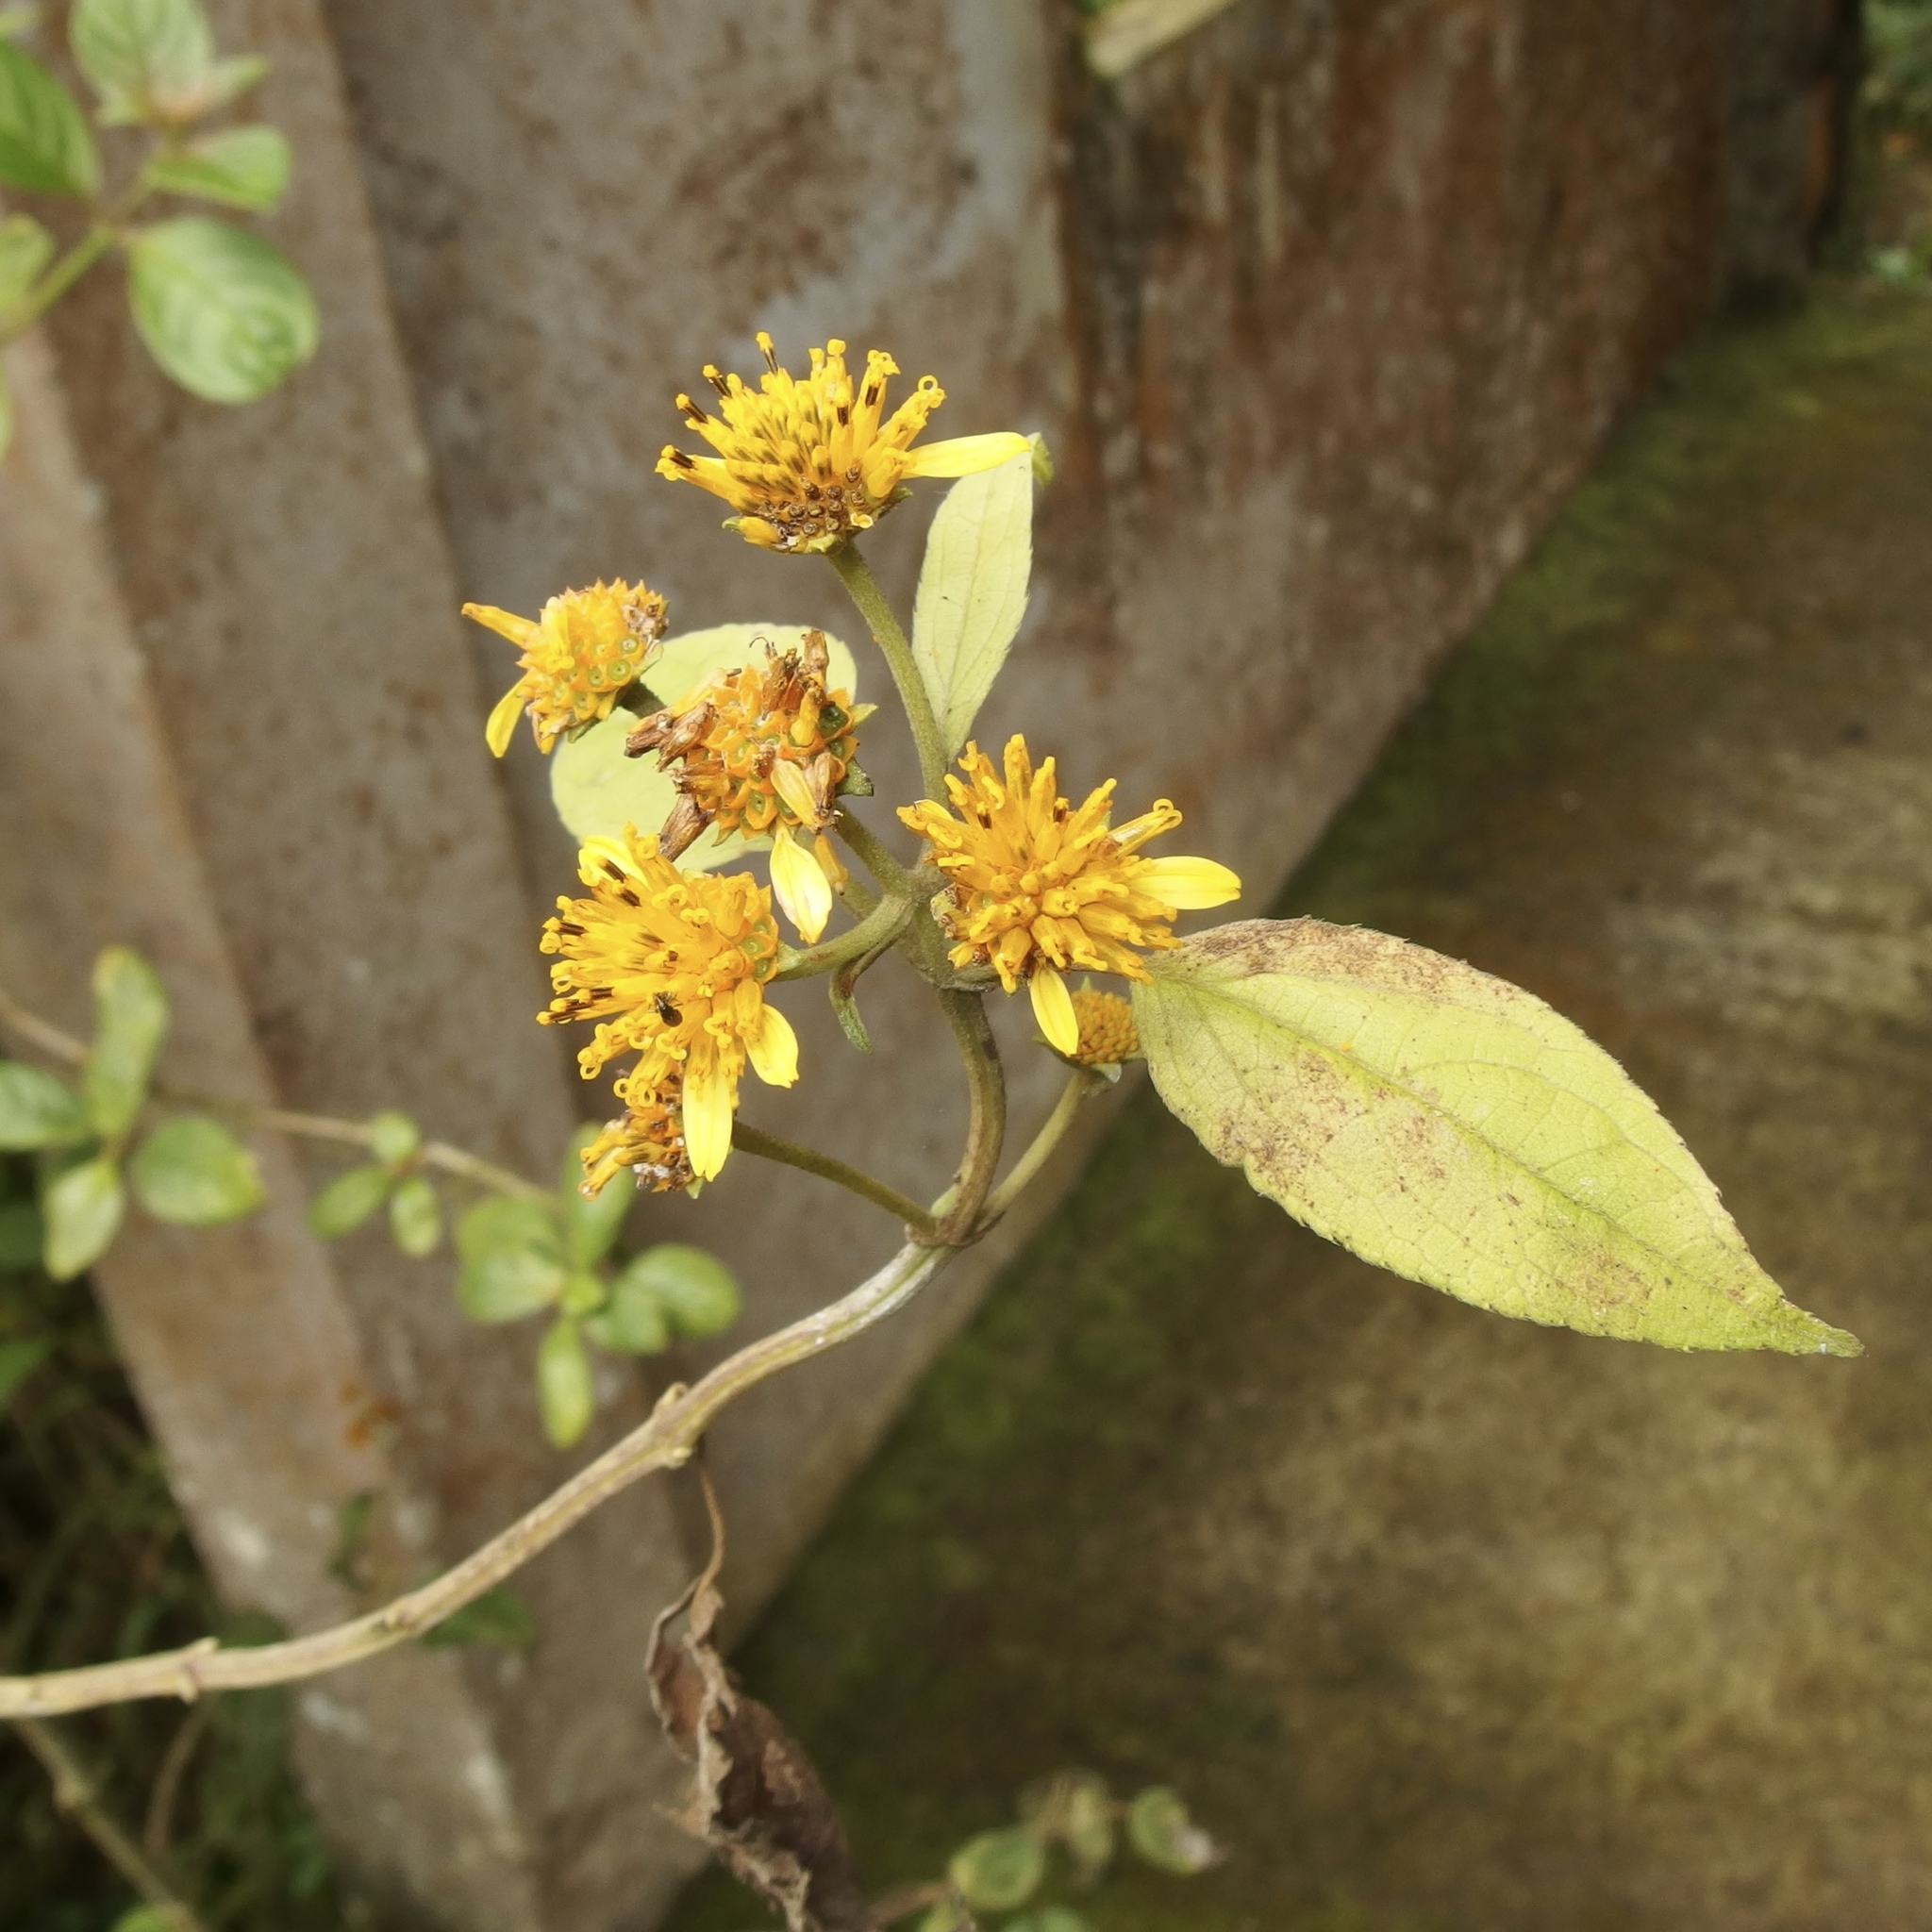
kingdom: Plantae
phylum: Tracheophyta
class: Magnoliopsida
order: Asterales
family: Asteraceae
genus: Tilesia
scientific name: Tilesia baccata
